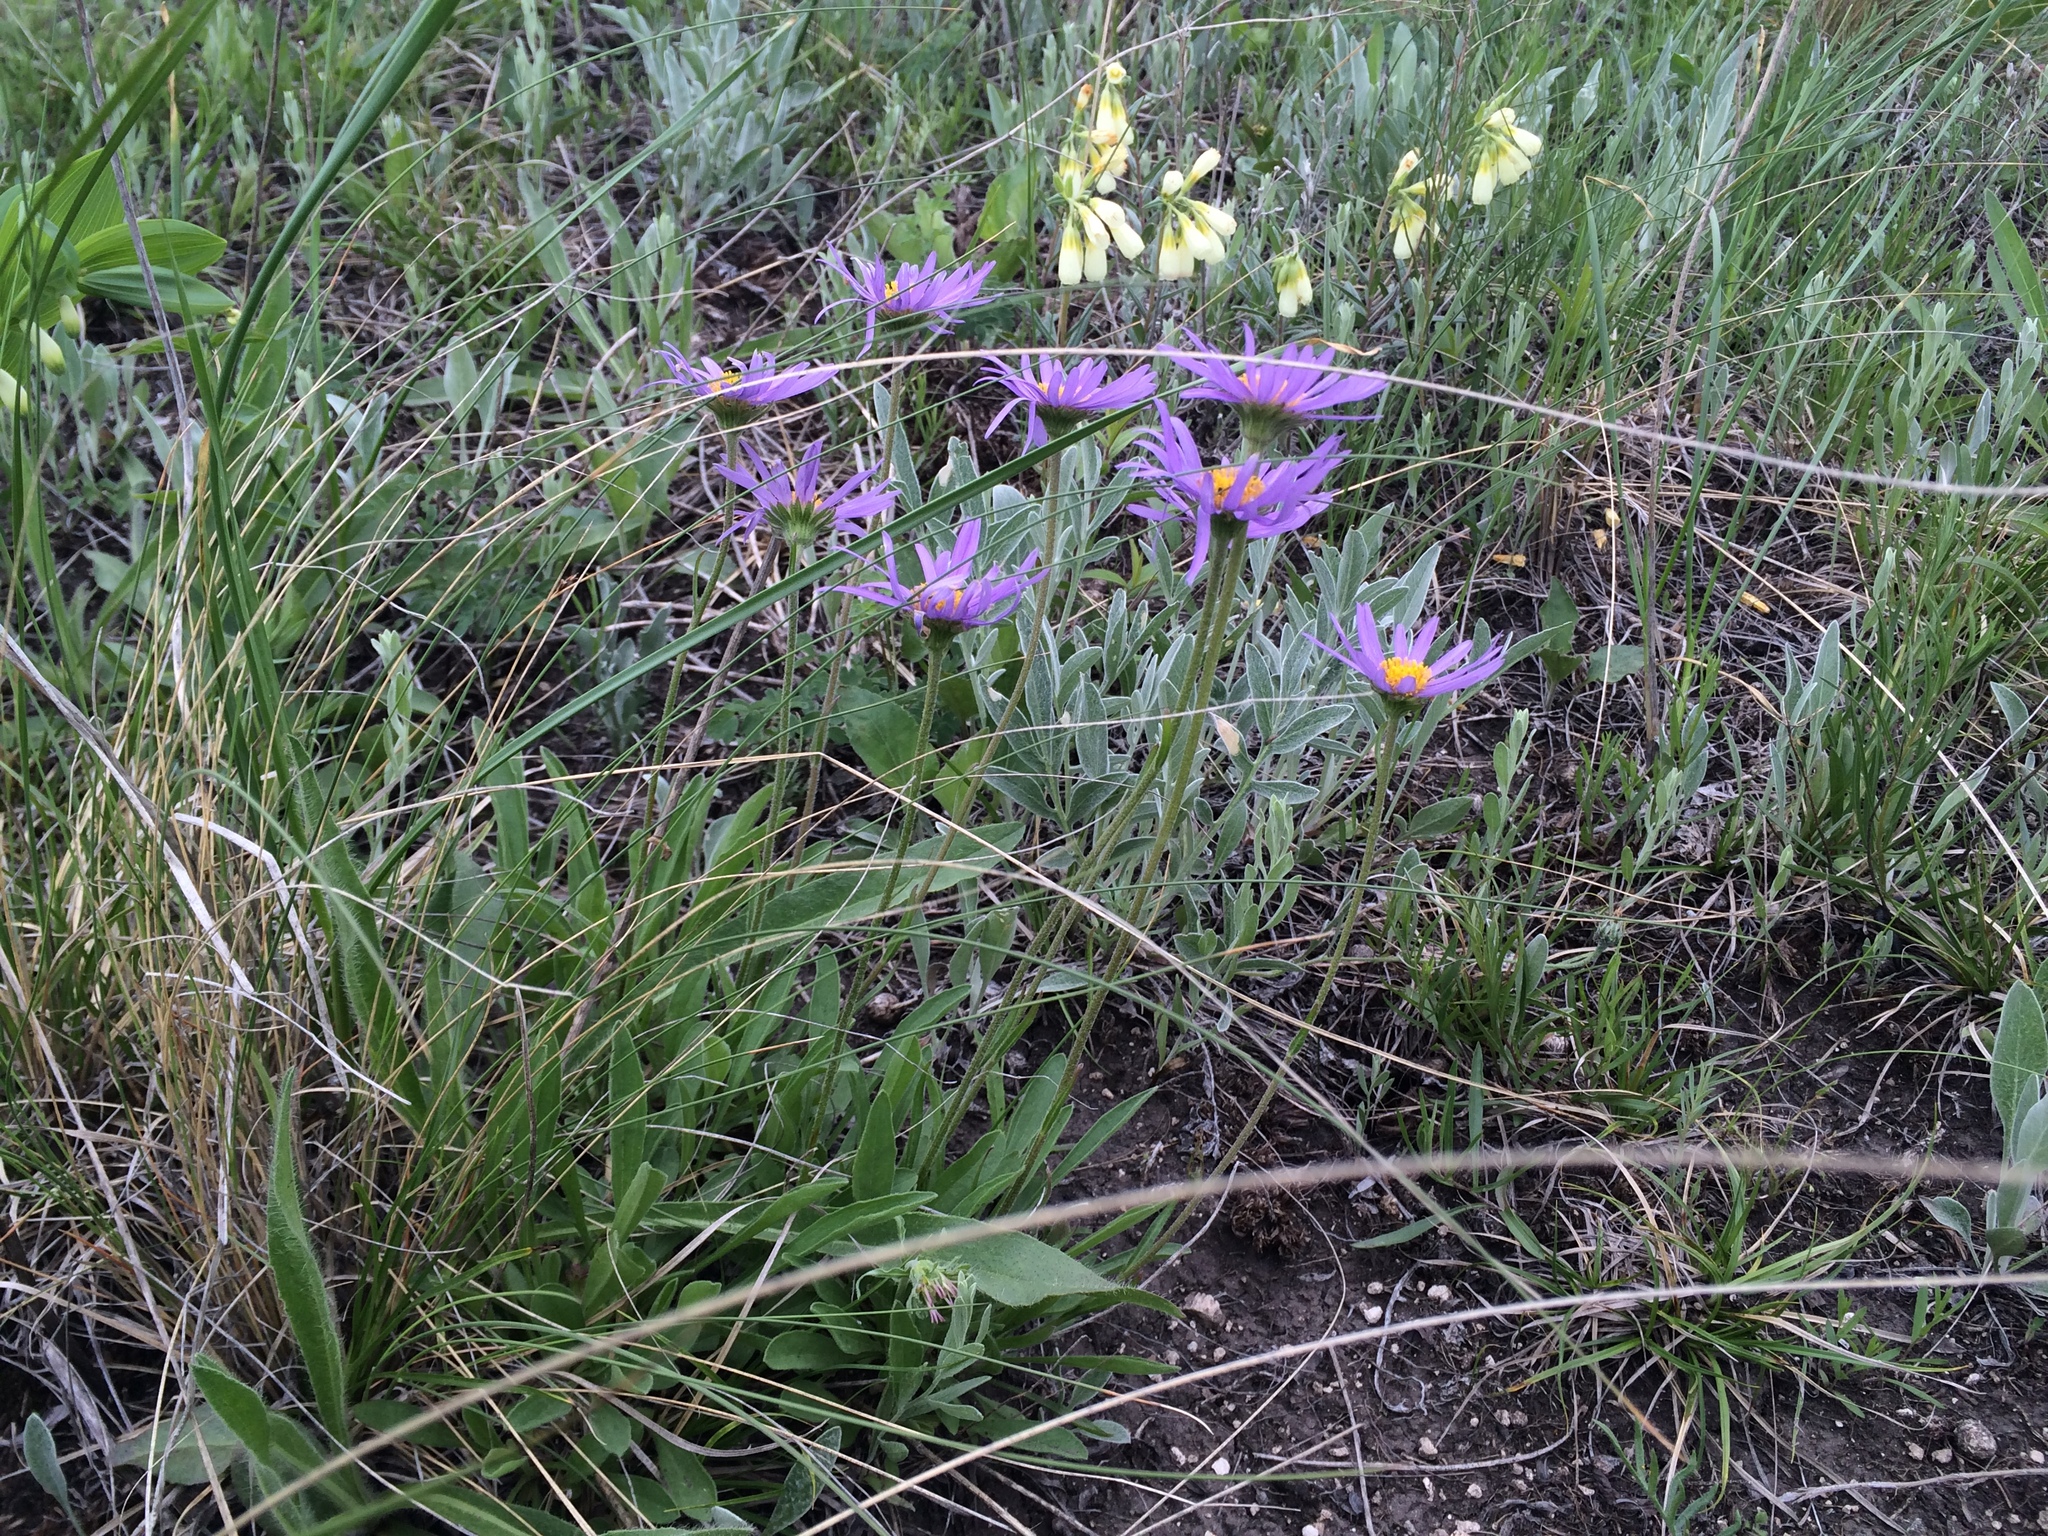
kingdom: Plantae
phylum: Tracheophyta
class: Magnoliopsida
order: Asterales
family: Asteraceae
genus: Aster
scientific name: Aster alpinus
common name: Alpine aster
